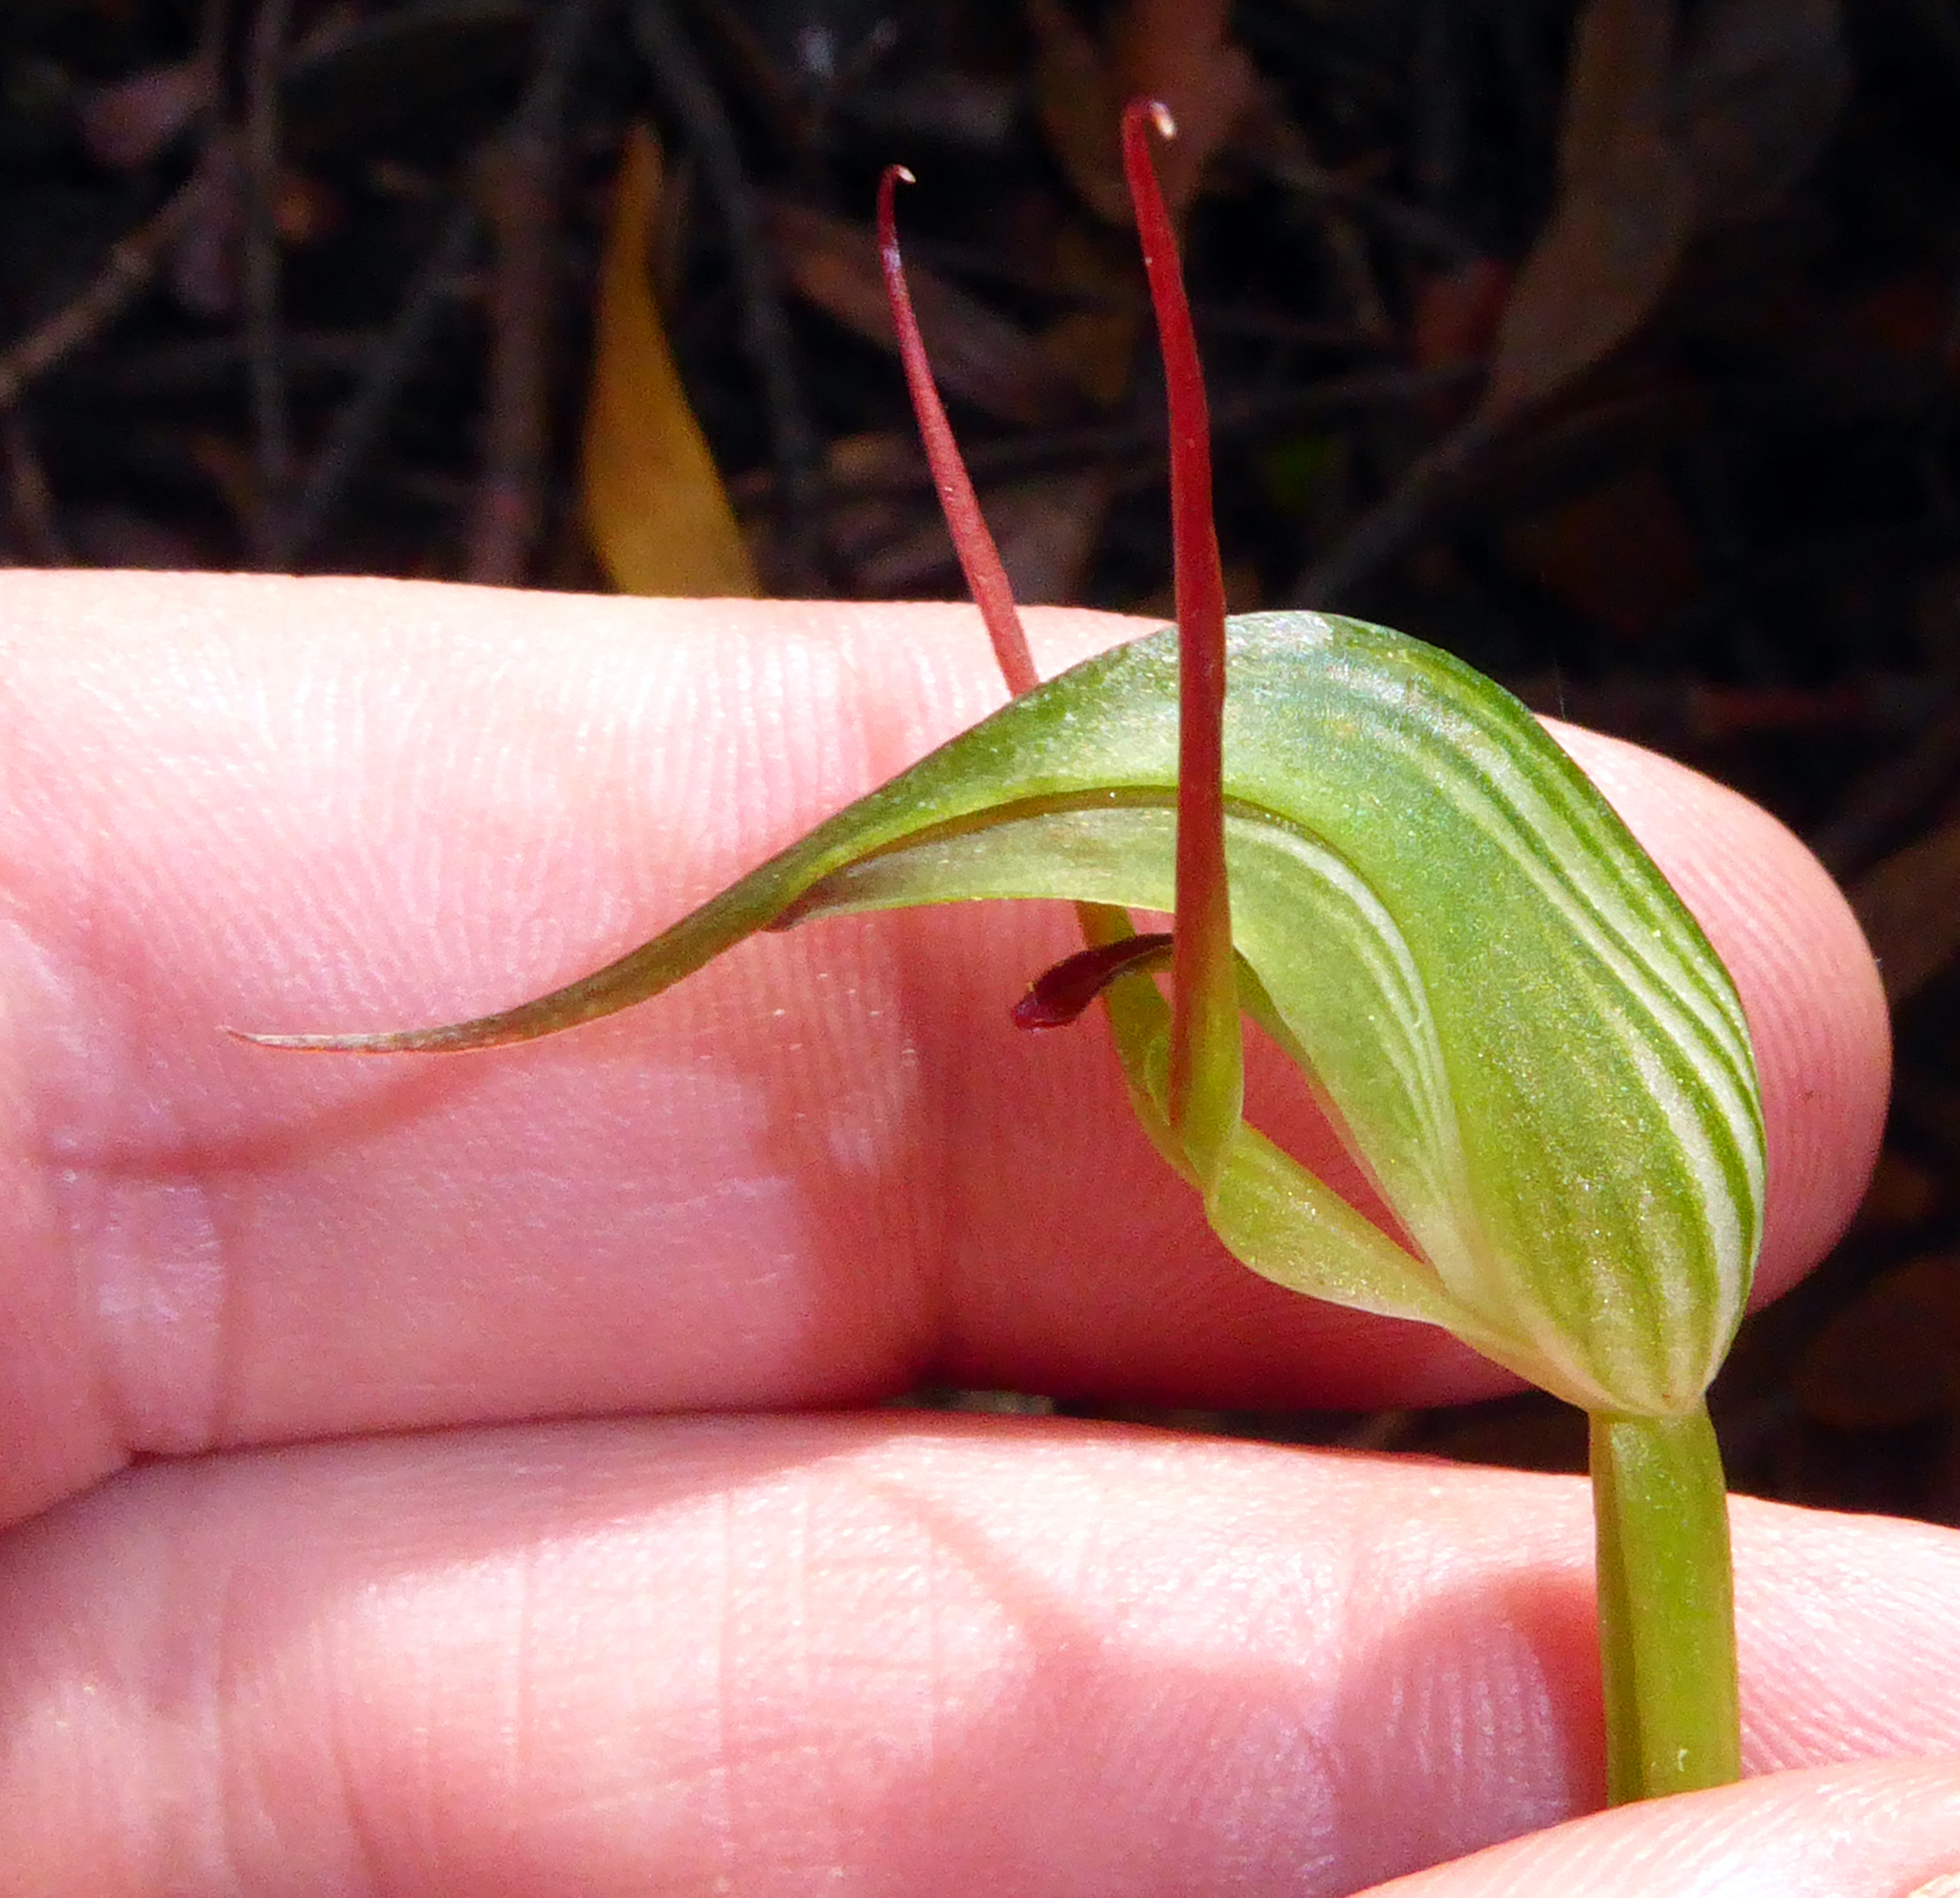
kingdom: Plantae
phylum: Tracheophyta
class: Liliopsida
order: Asparagales
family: Orchidaceae
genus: Pterostylis
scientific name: Pterostylis agathicola
